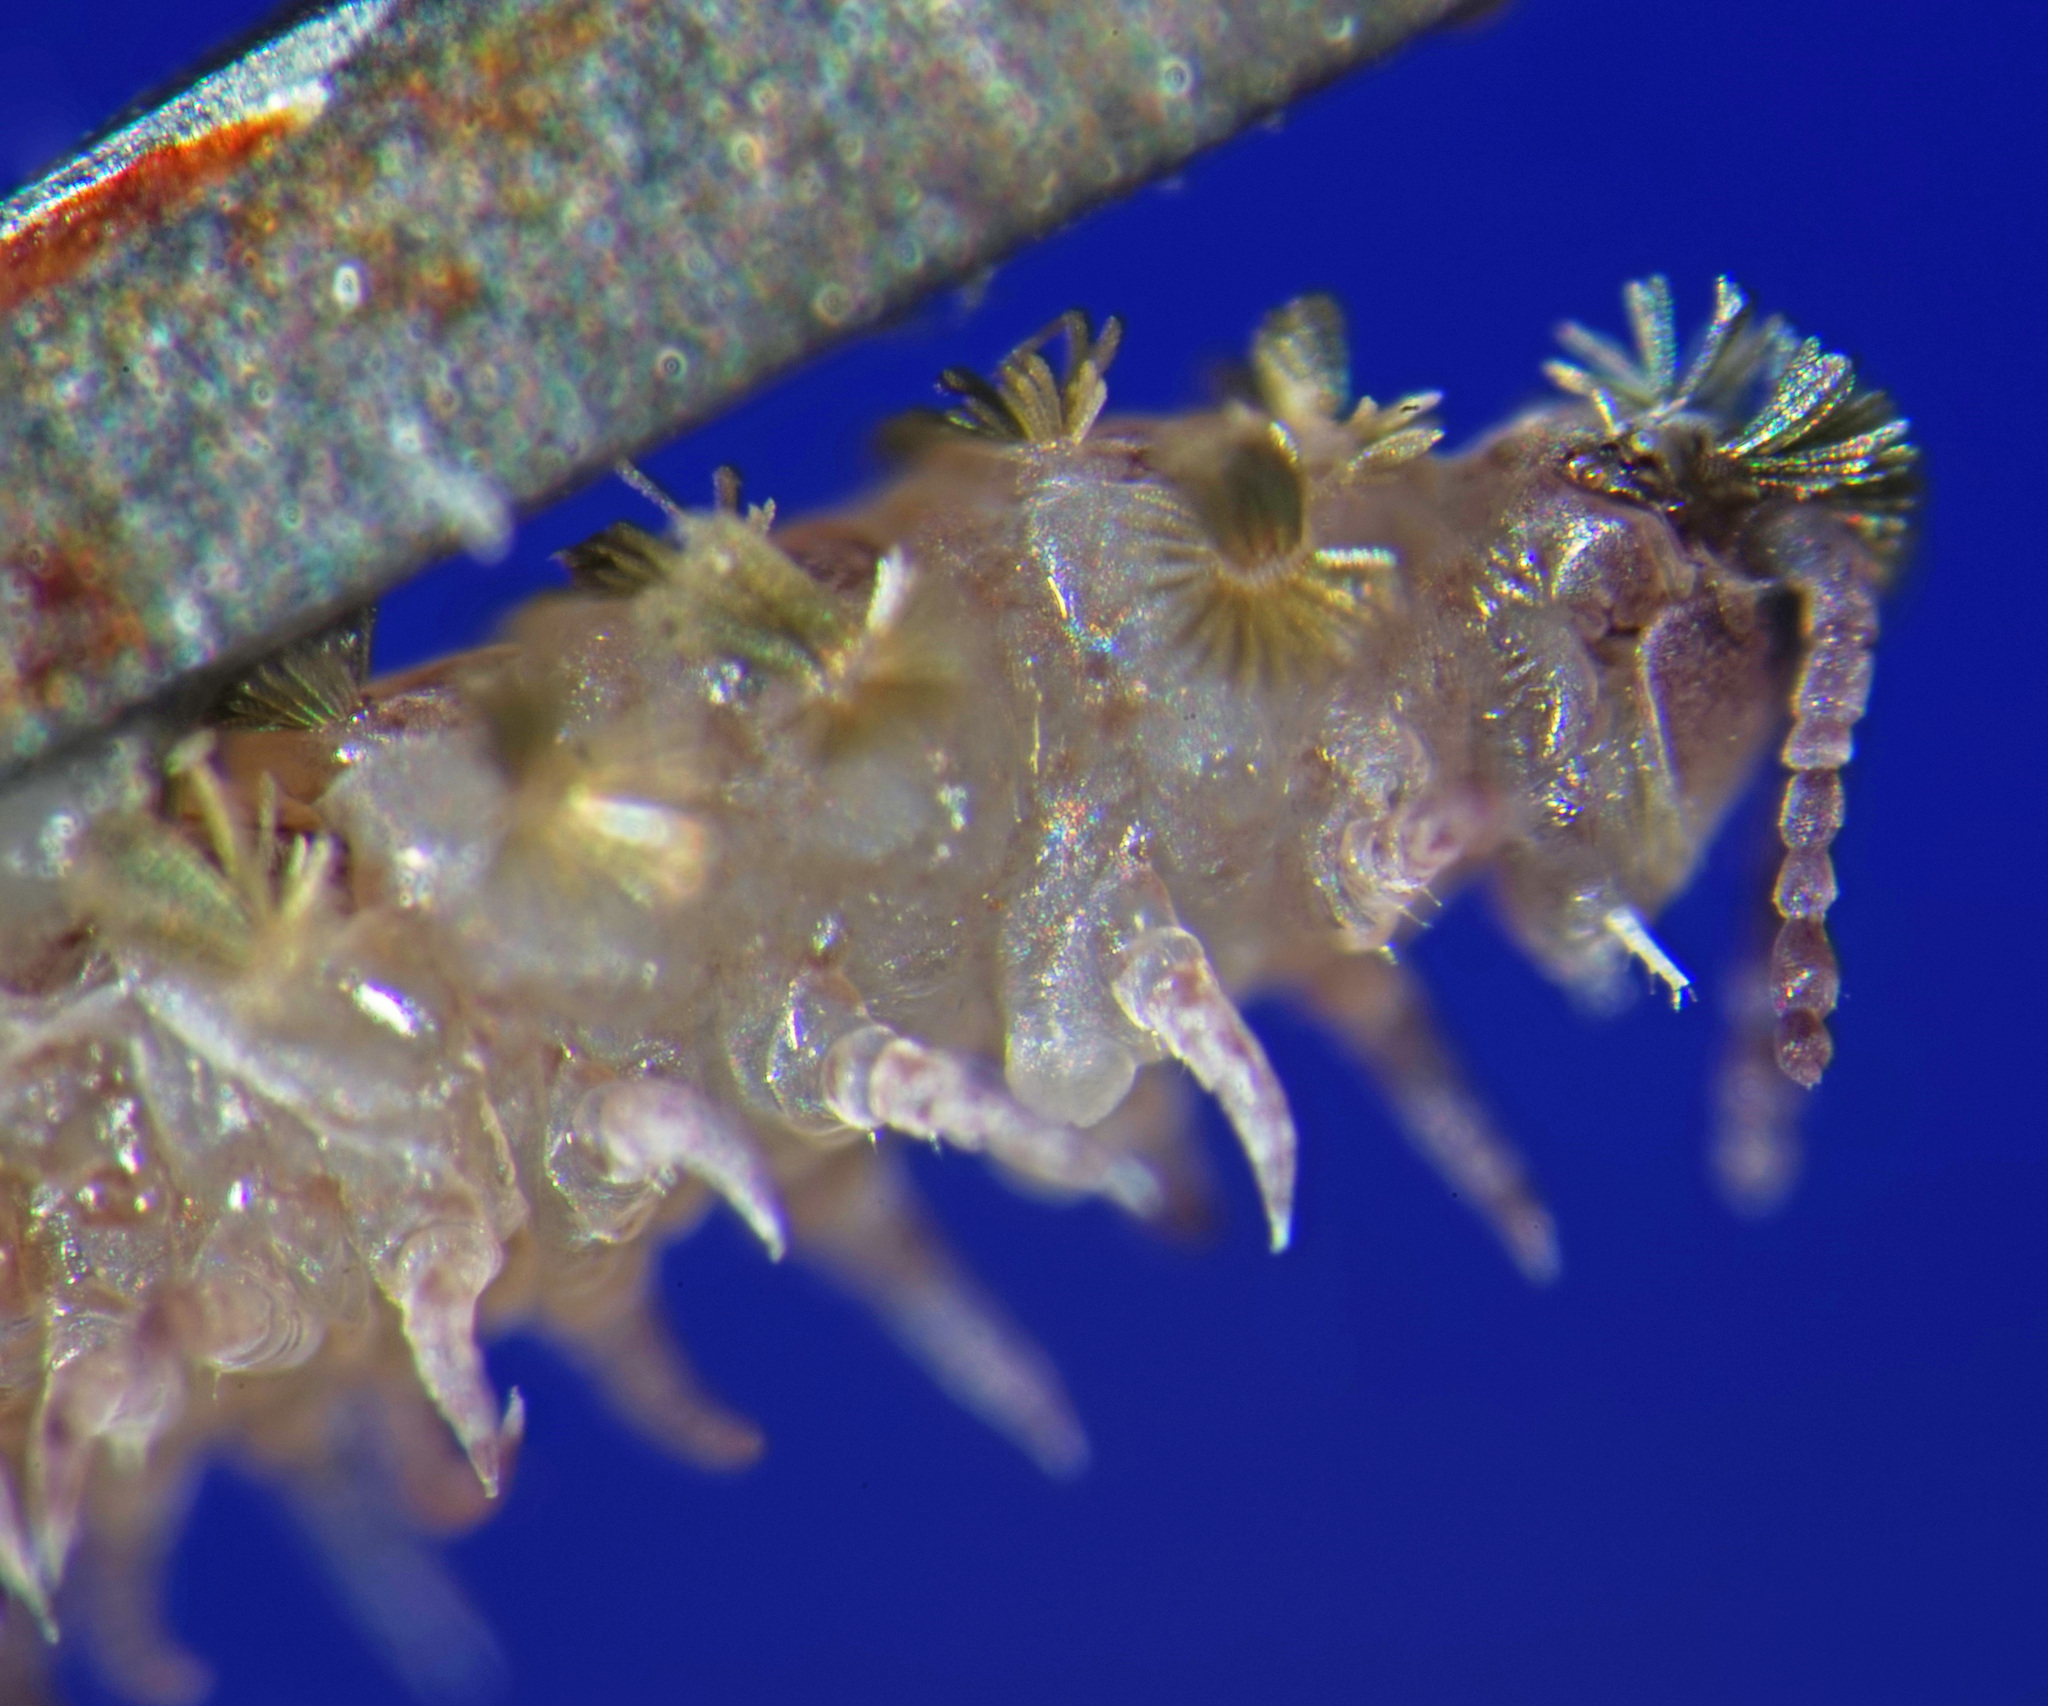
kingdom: Animalia
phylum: Arthropoda
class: Diplopoda
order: Polyxenida
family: Polyxenidae
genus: Polyxenus
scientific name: Polyxenus lagurus
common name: Bristly millipede
